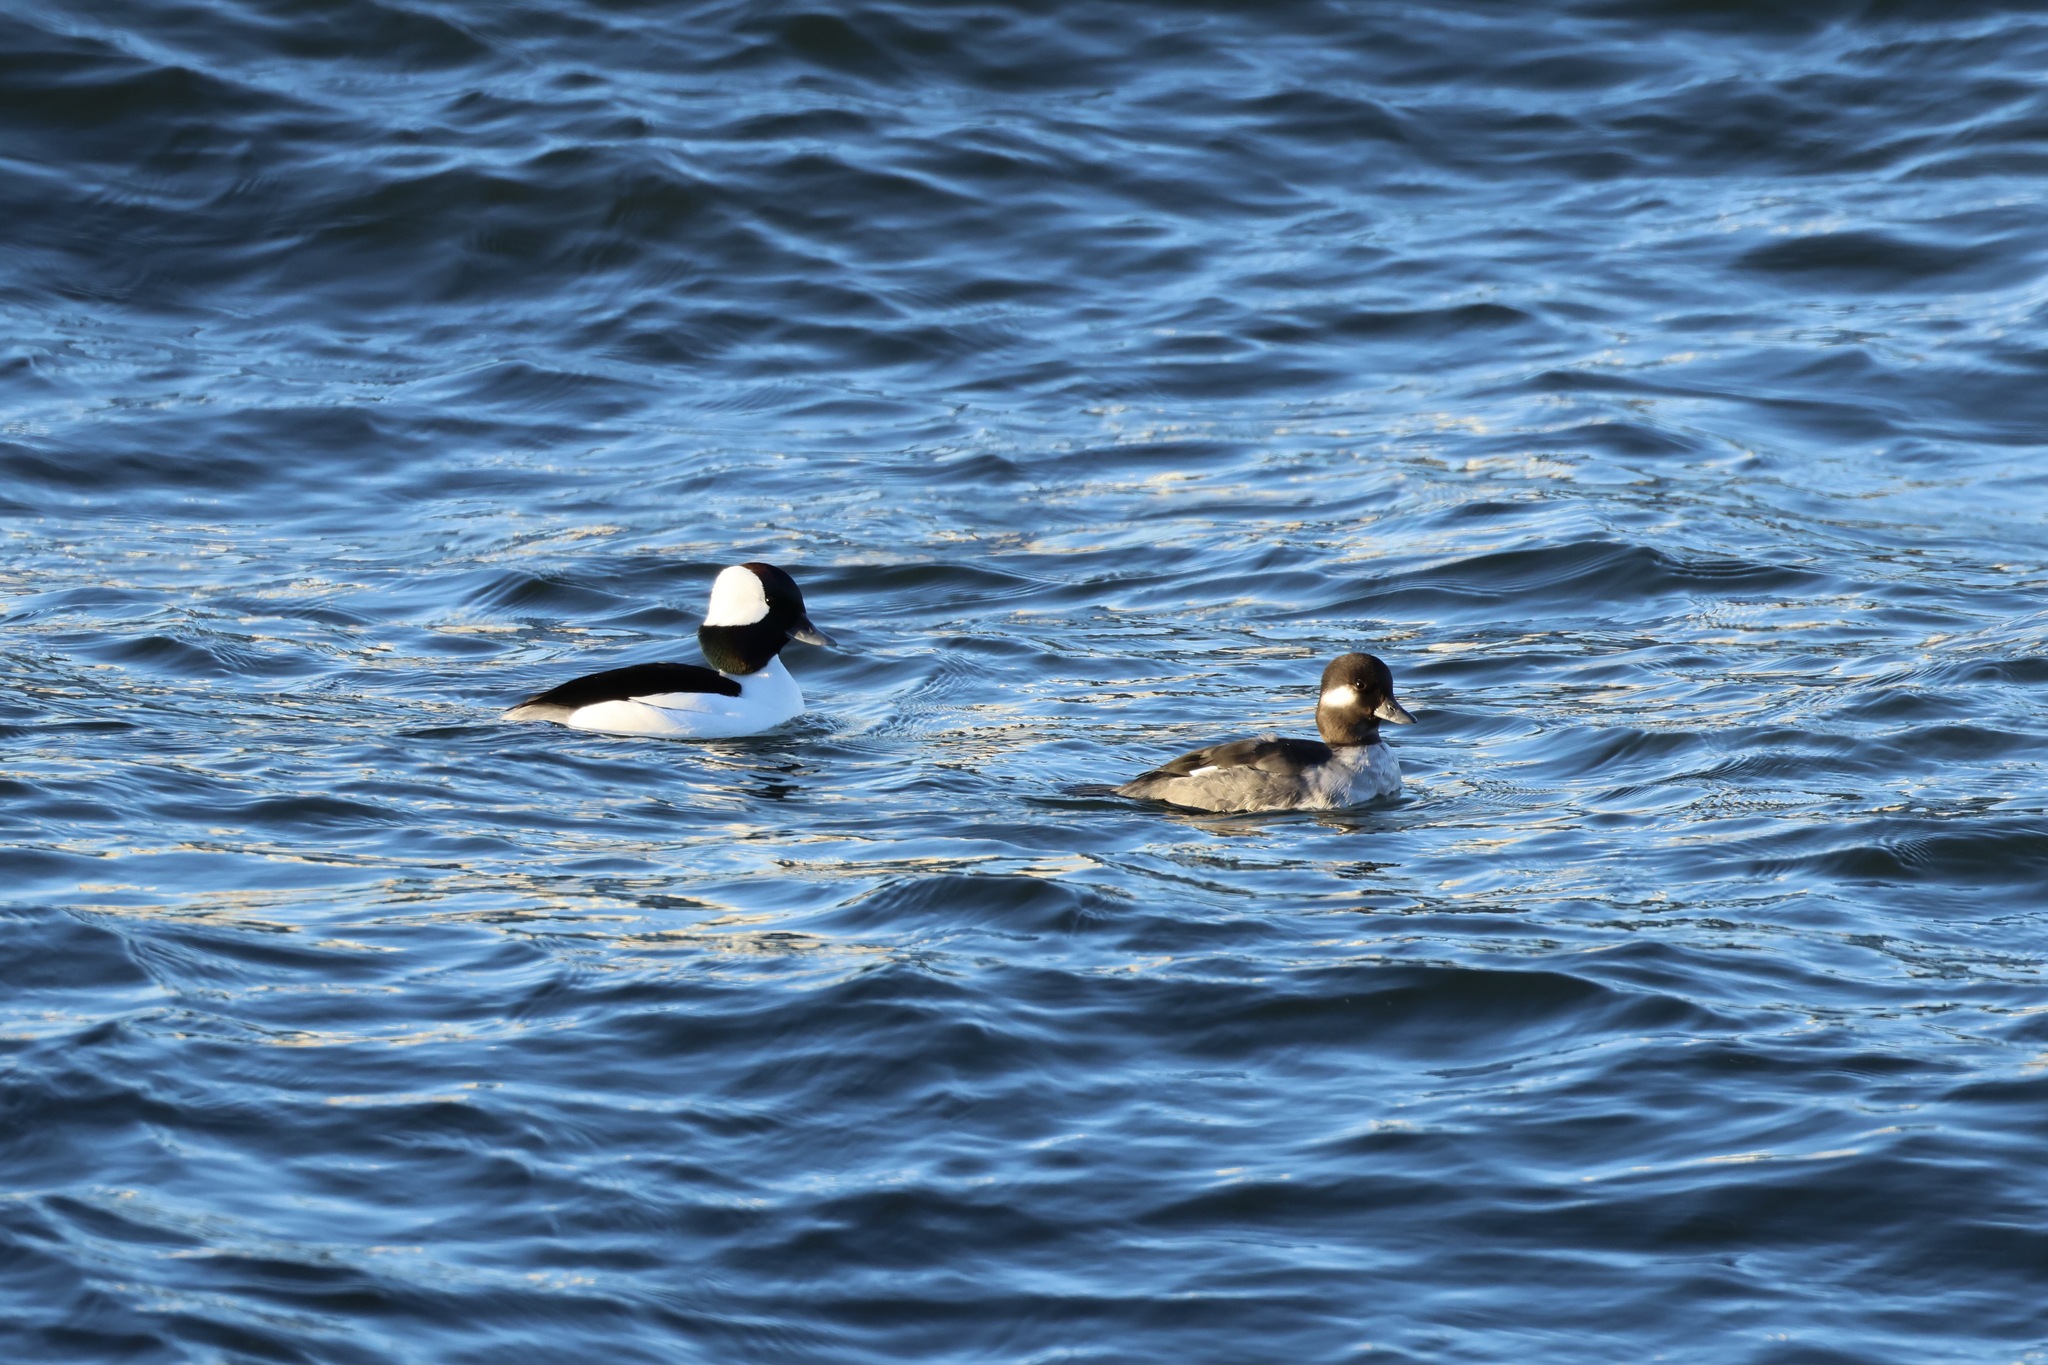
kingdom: Animalia
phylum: Chordata
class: Aves
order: Anseriformes
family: Anatidae
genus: Bucephala
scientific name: Bucephala albeola
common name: Bufflehead
